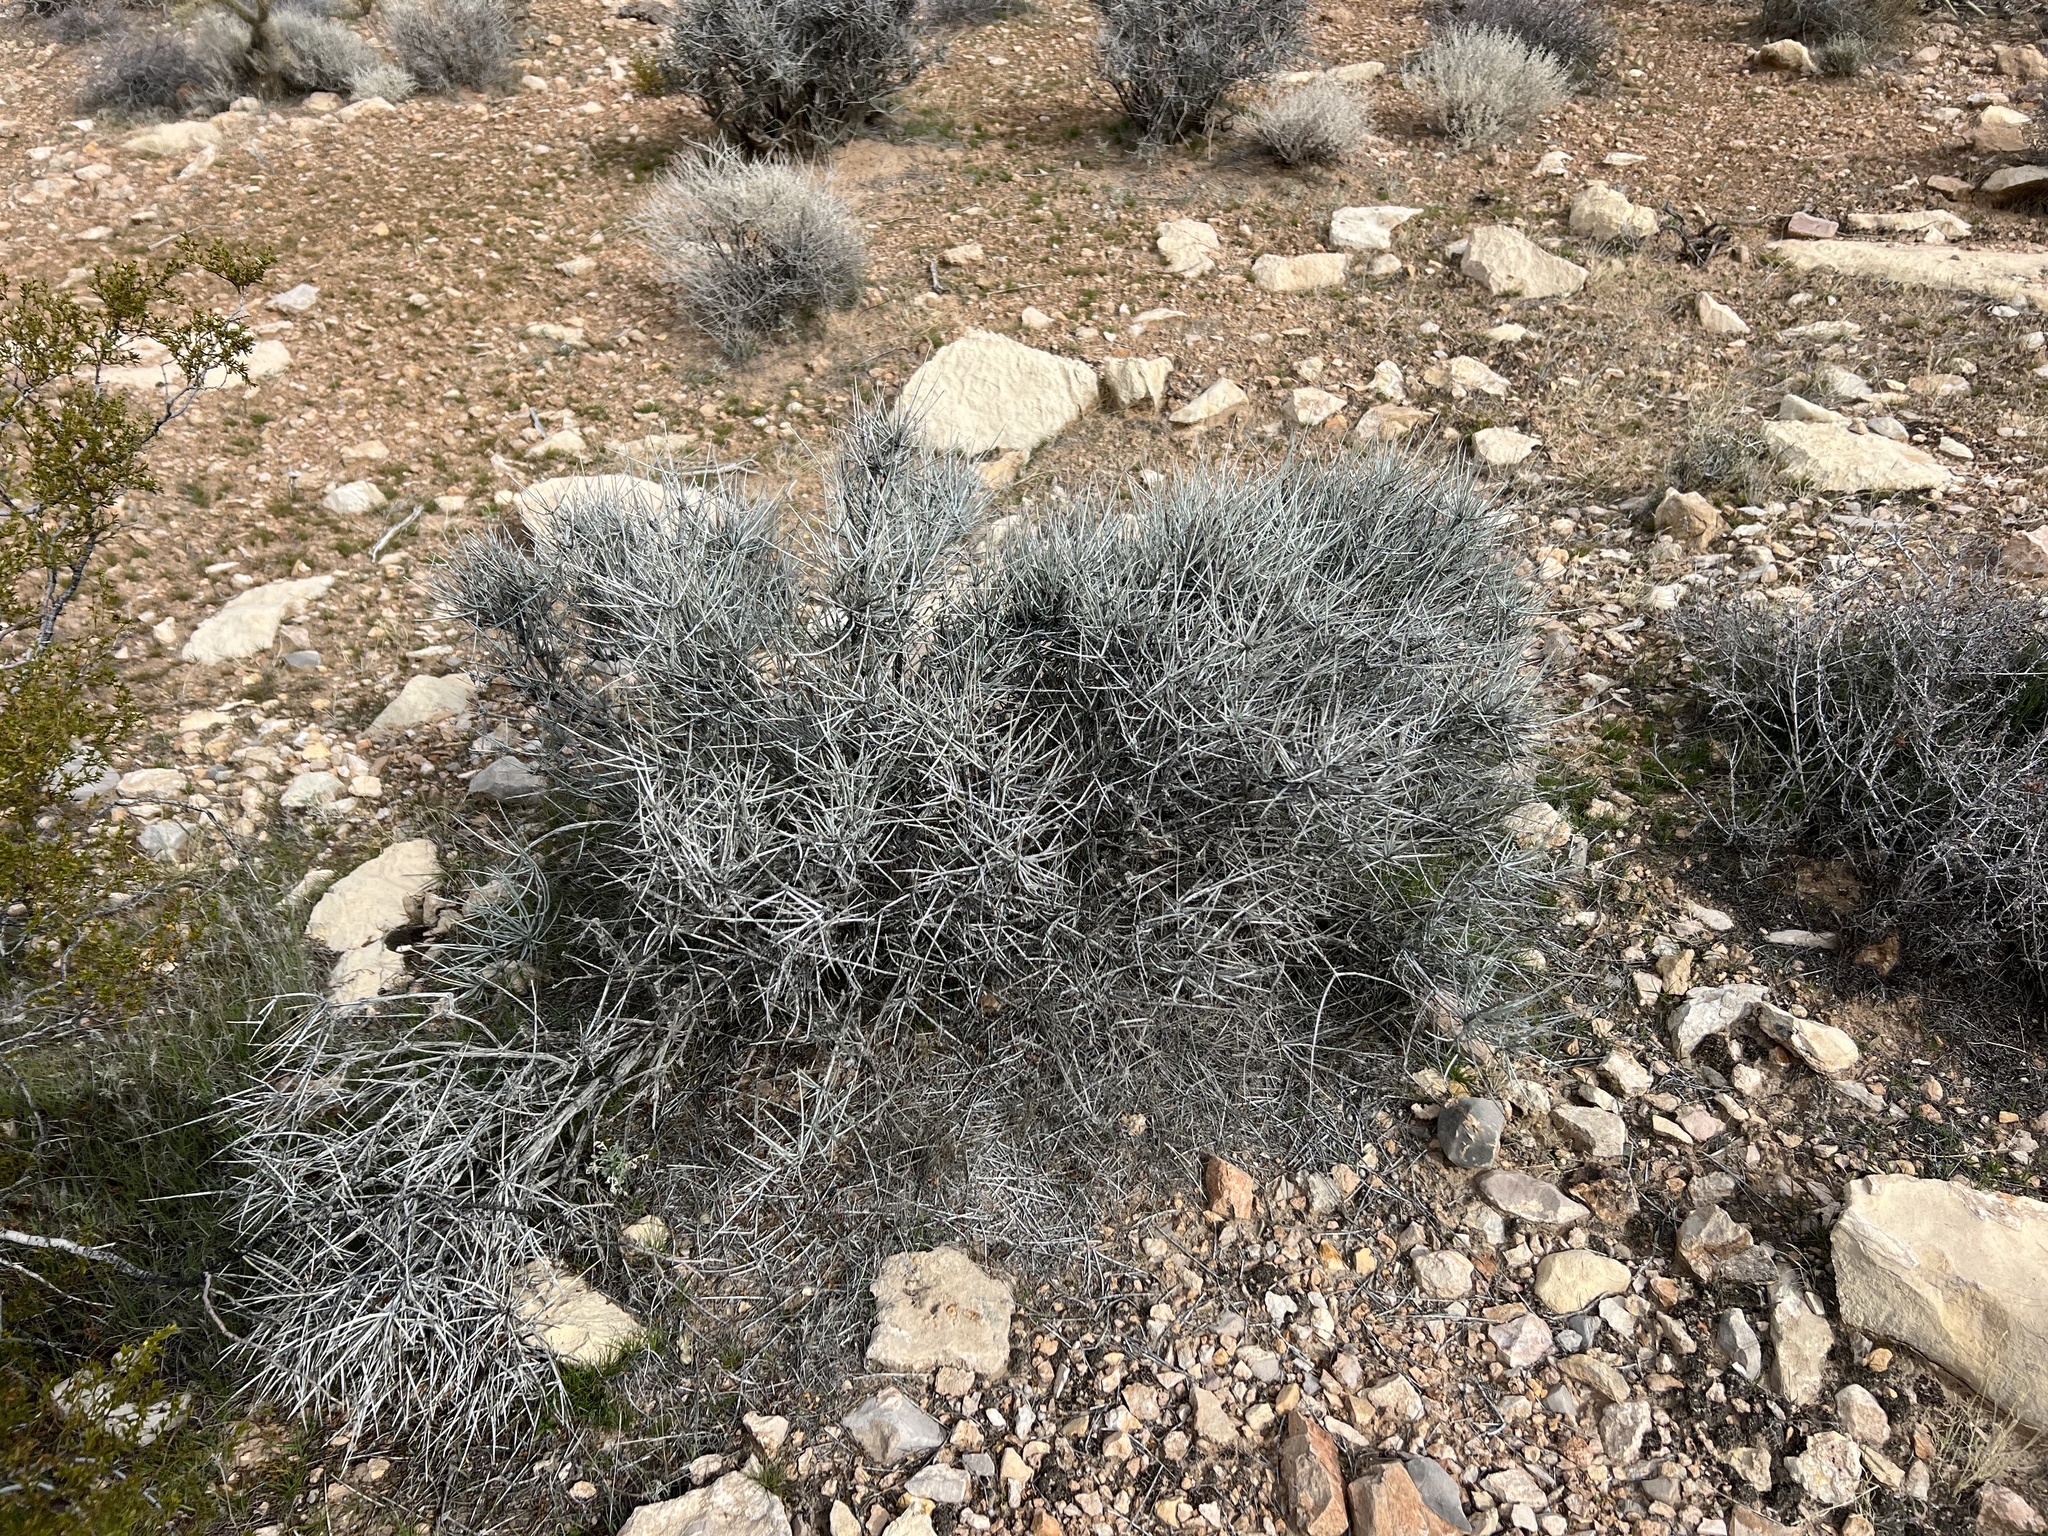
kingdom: Plantae
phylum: Tracheophyta
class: Gnetopsida
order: Ephedrales
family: Ephedraceae
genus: Ephedra
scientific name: Ephedra nevadensis
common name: Gray ephedra
